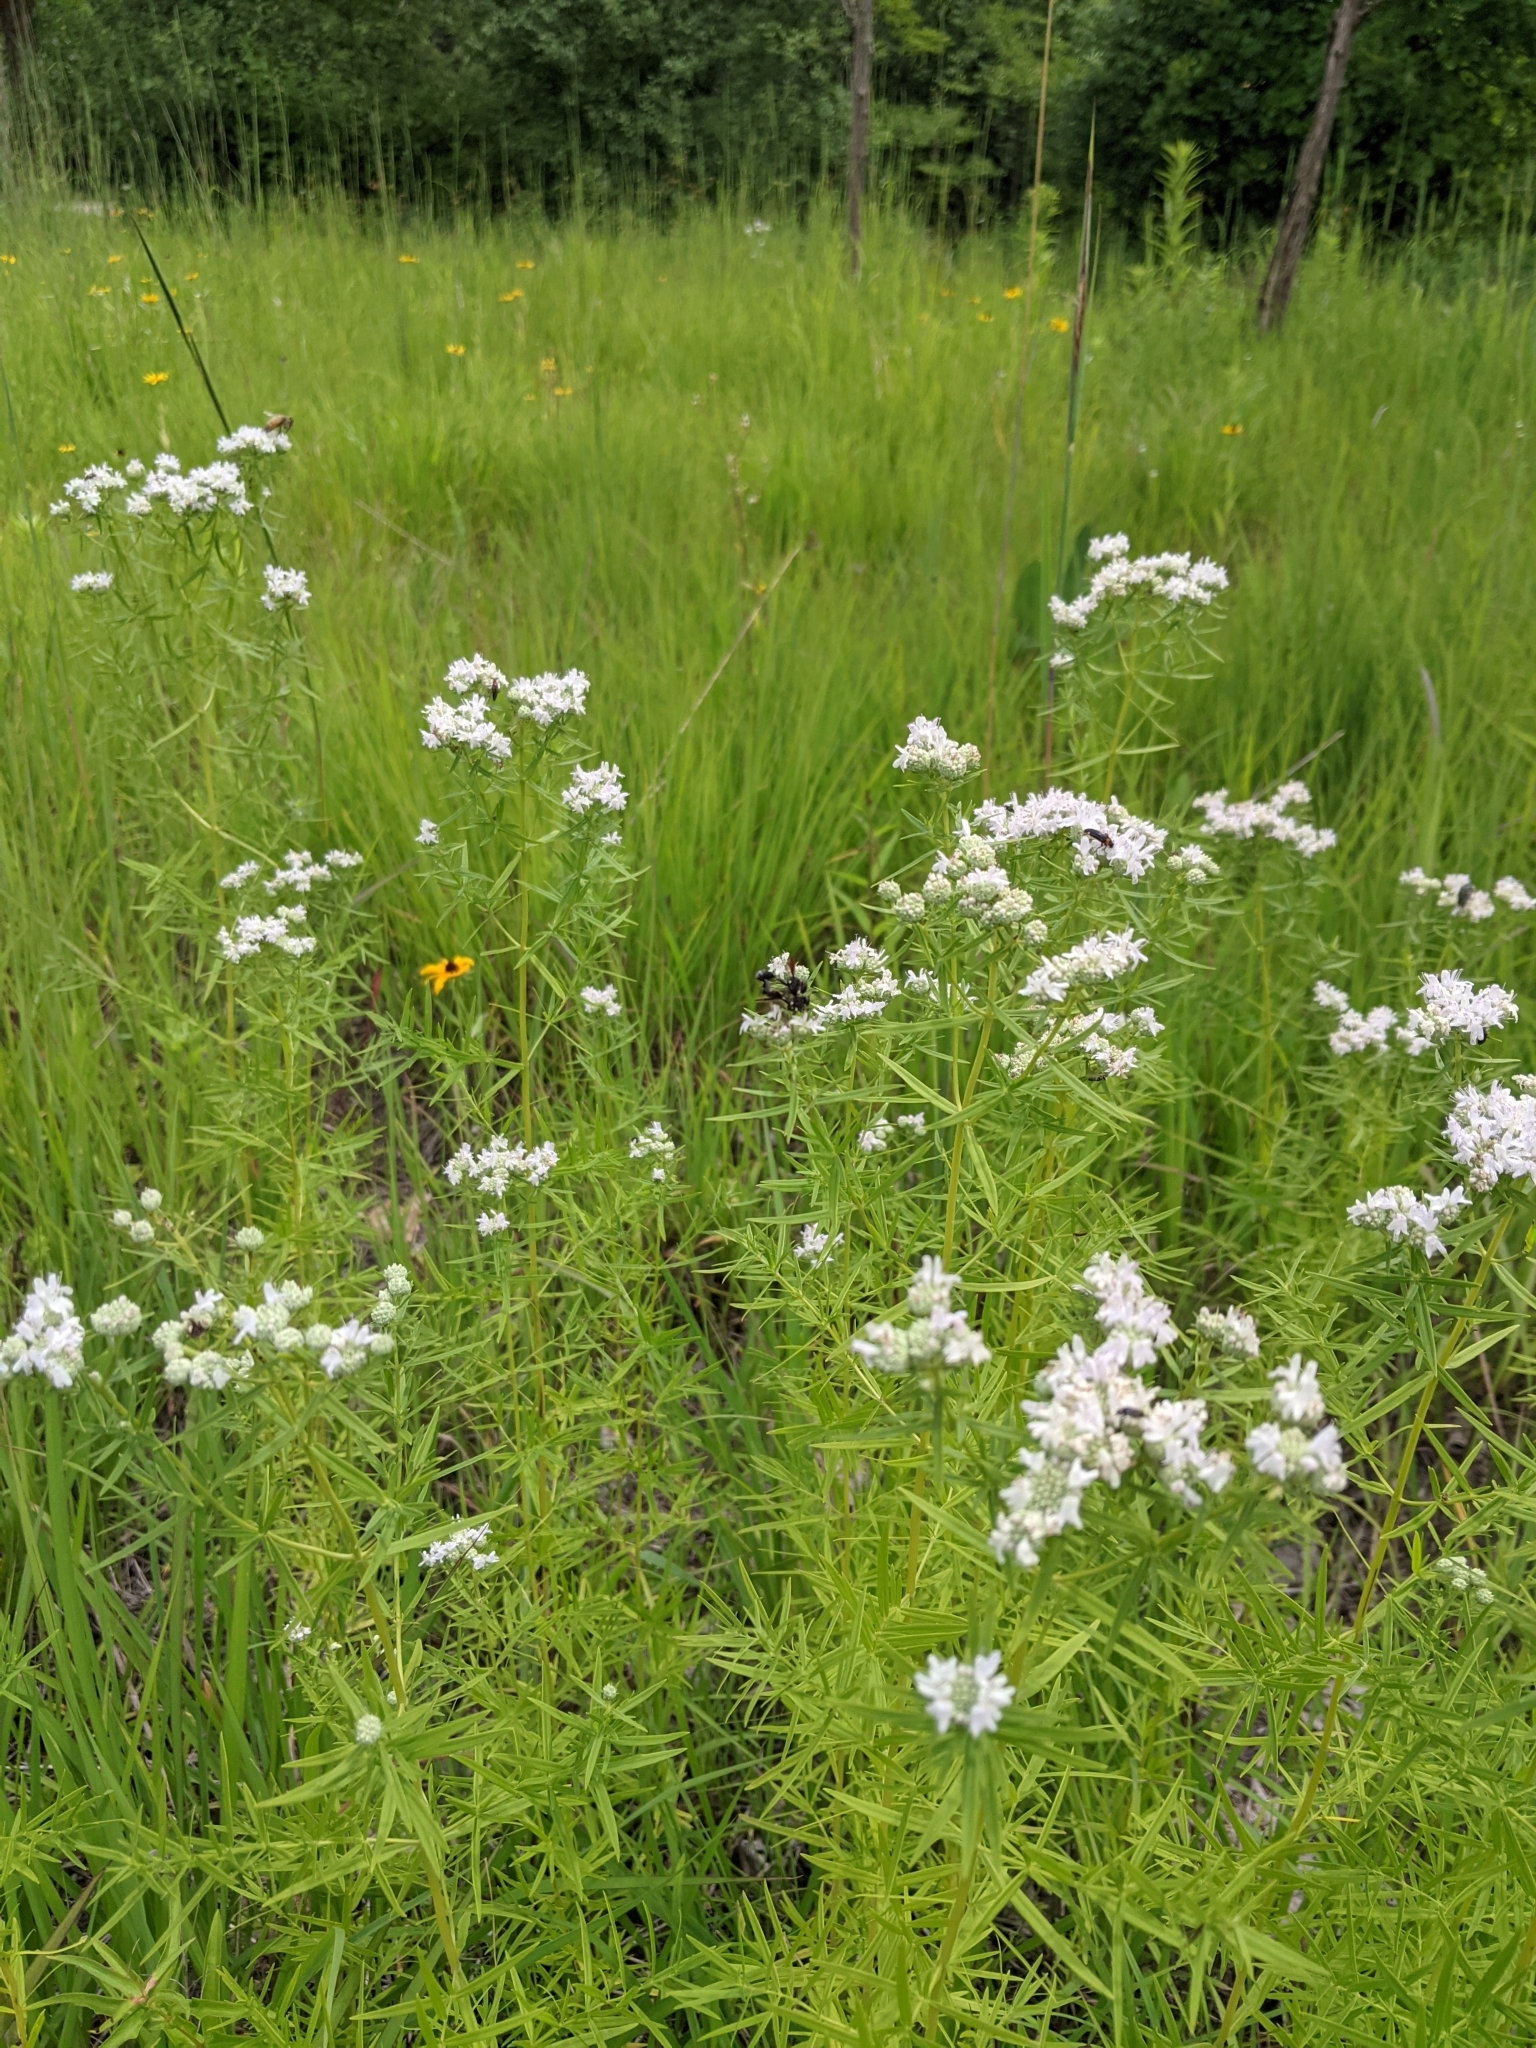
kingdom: Plantae
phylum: Tracheophyta
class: Magnoliopsida
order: Lamiales
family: Lamiaceae
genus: Pycnanthemum
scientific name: Pycnanthemum virginianum
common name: Virginia mountain-mint
